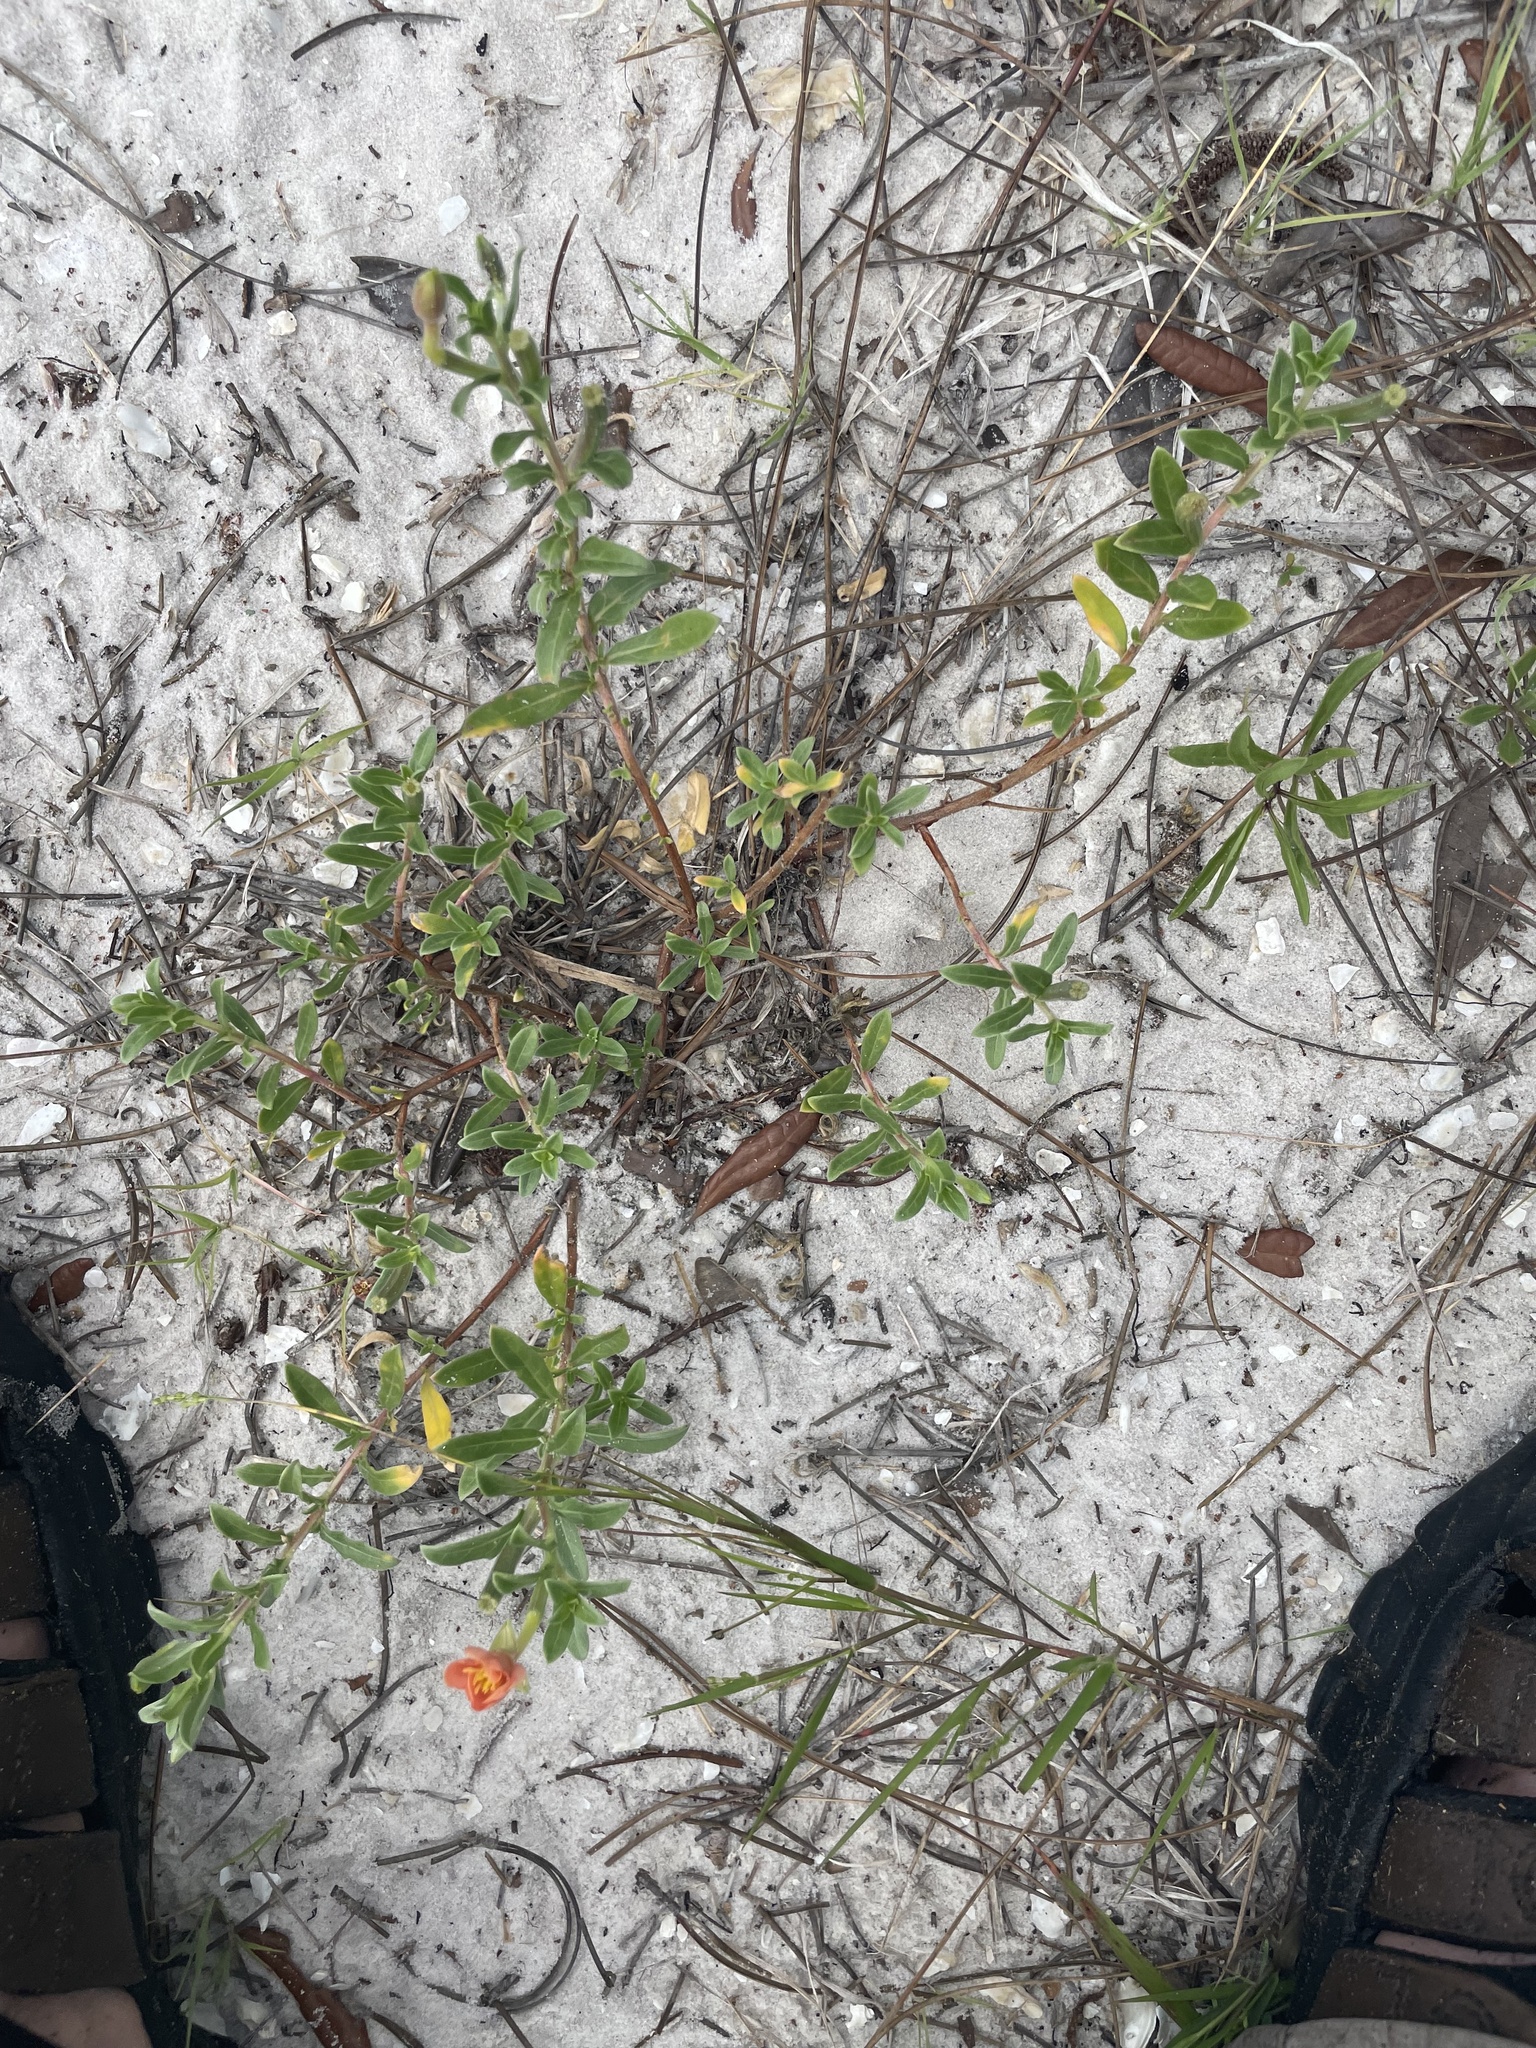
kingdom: Plantae
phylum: Tracheophyta
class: Magnoliopsida
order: Asterales
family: Asteraceae
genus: Heterotheca
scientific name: Heterotheca subaxillaris
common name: Camphorweed
